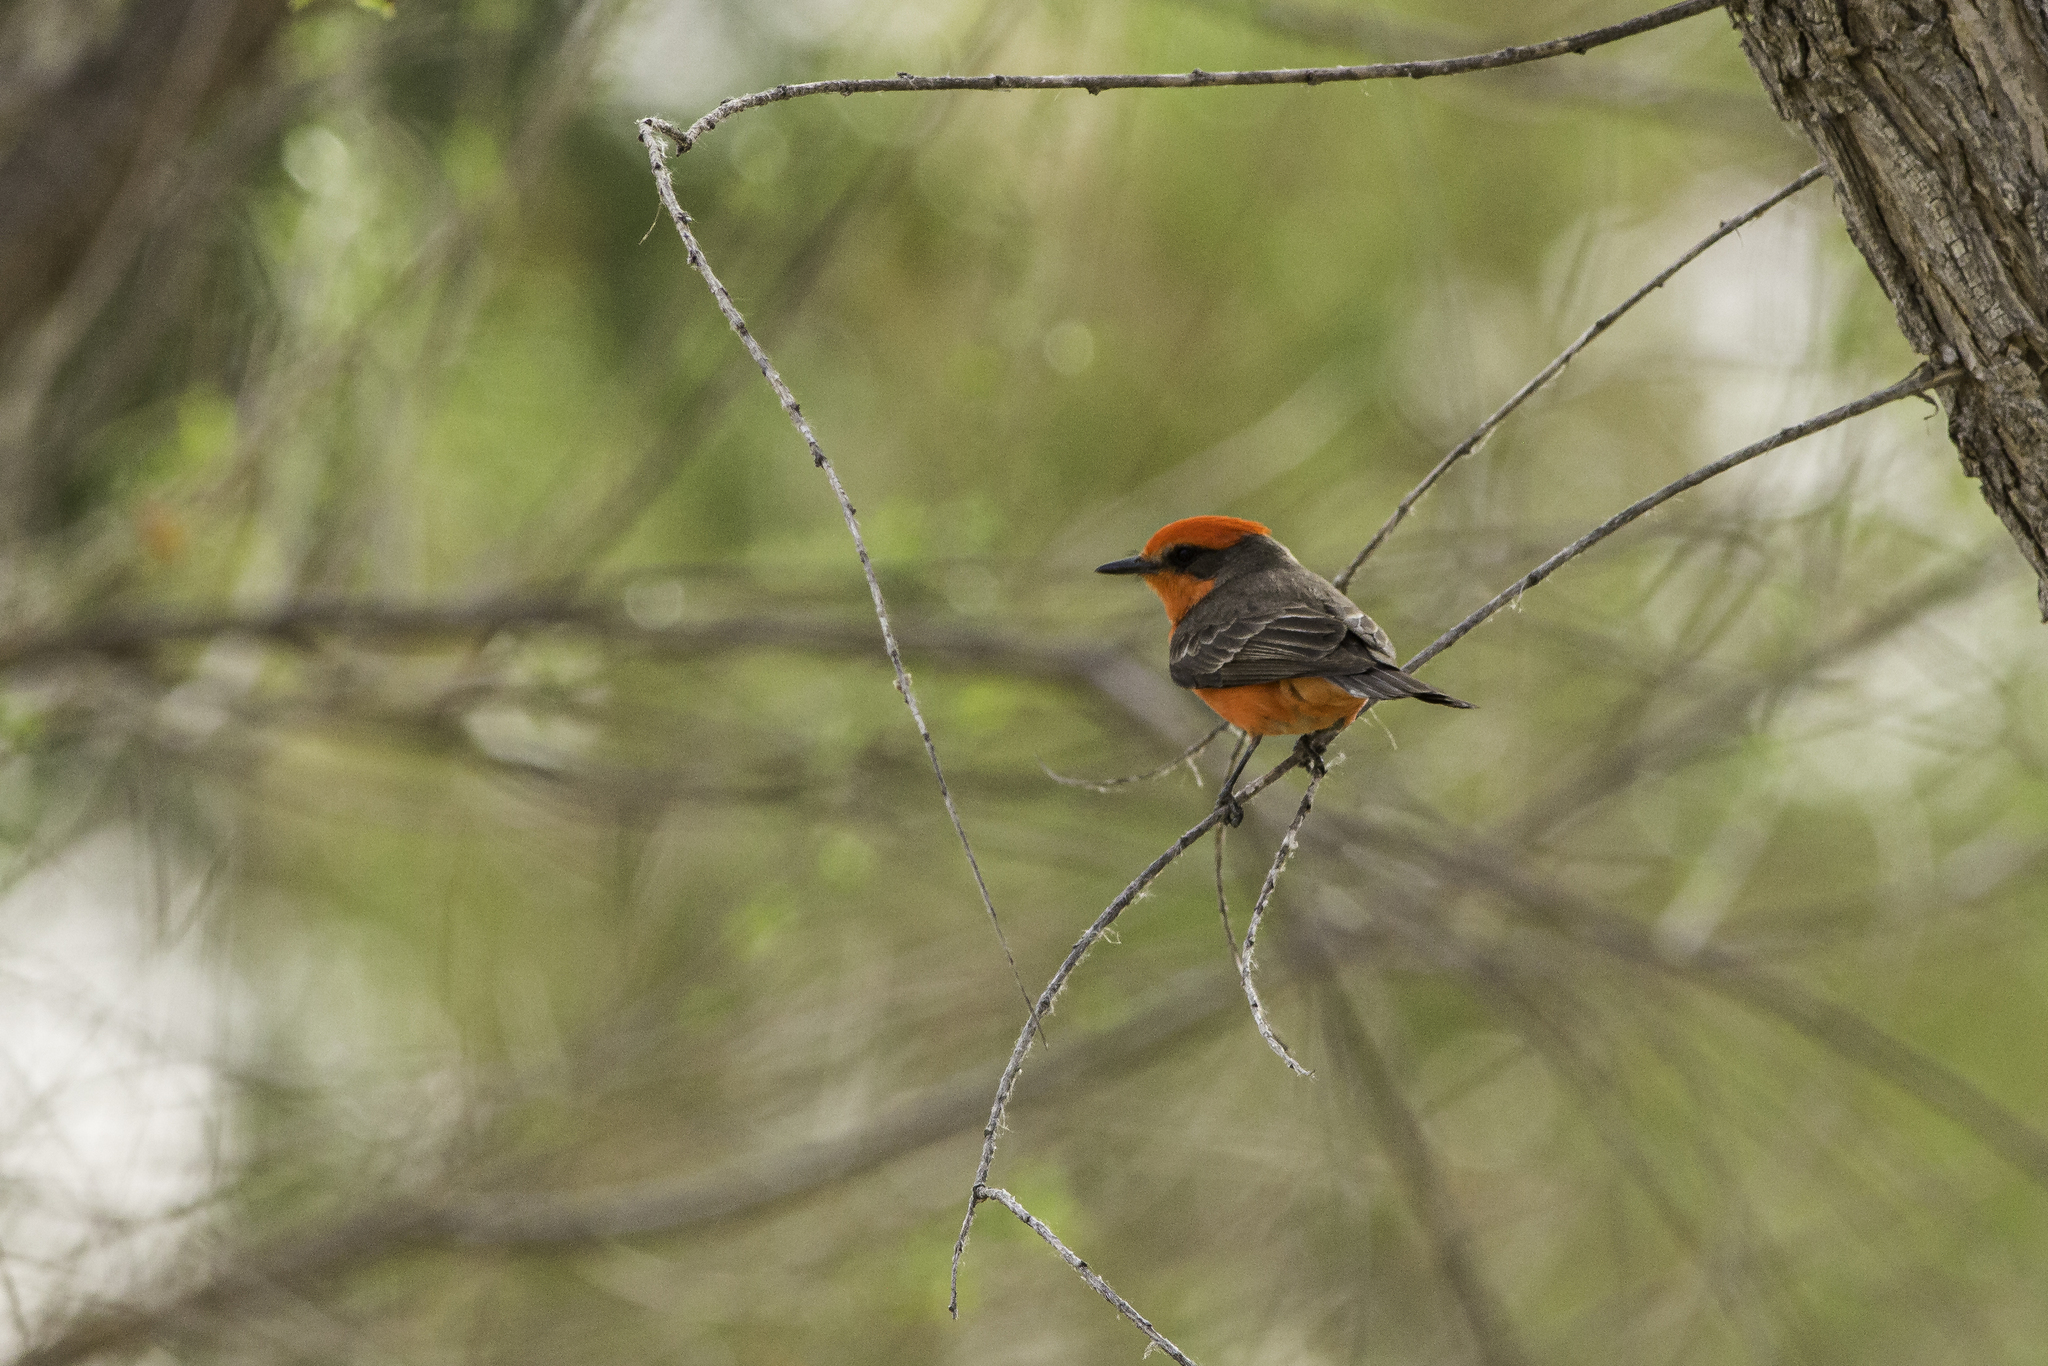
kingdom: Animalia
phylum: Chordata
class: Aves
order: Passeriformes
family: Tyrannidae
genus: Pyrocephalus
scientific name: Pyrocephalus rubinus
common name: Vermilion flycatcher
